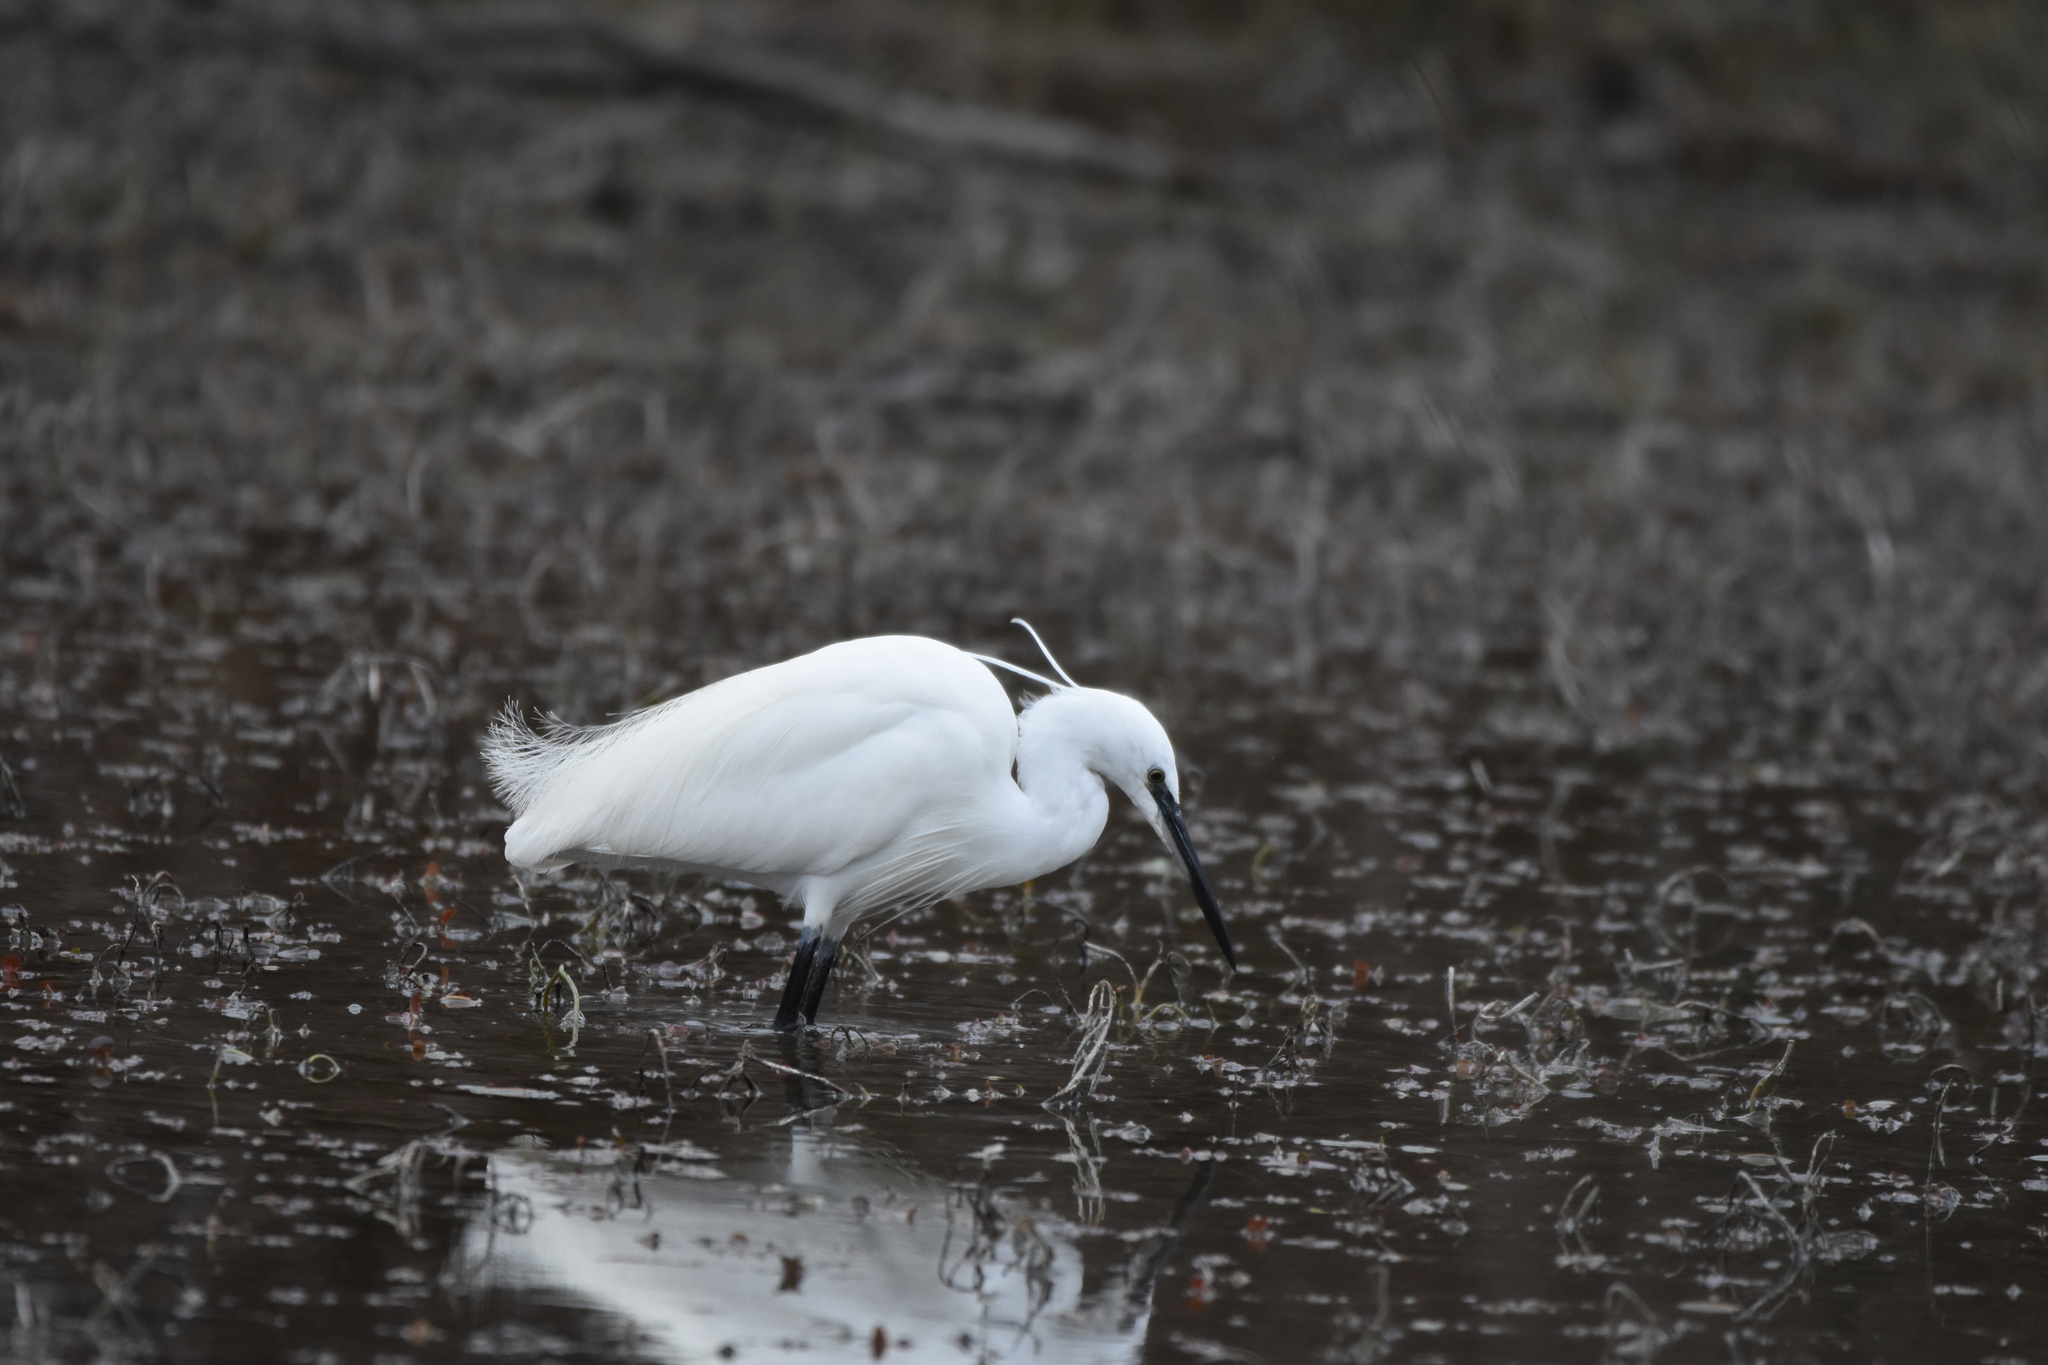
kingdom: Animalia
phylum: Chordata
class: Aves
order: Pelecaniformes
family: Ardeidae
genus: Egretta
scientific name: Egretta garzetta
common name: Little egret
